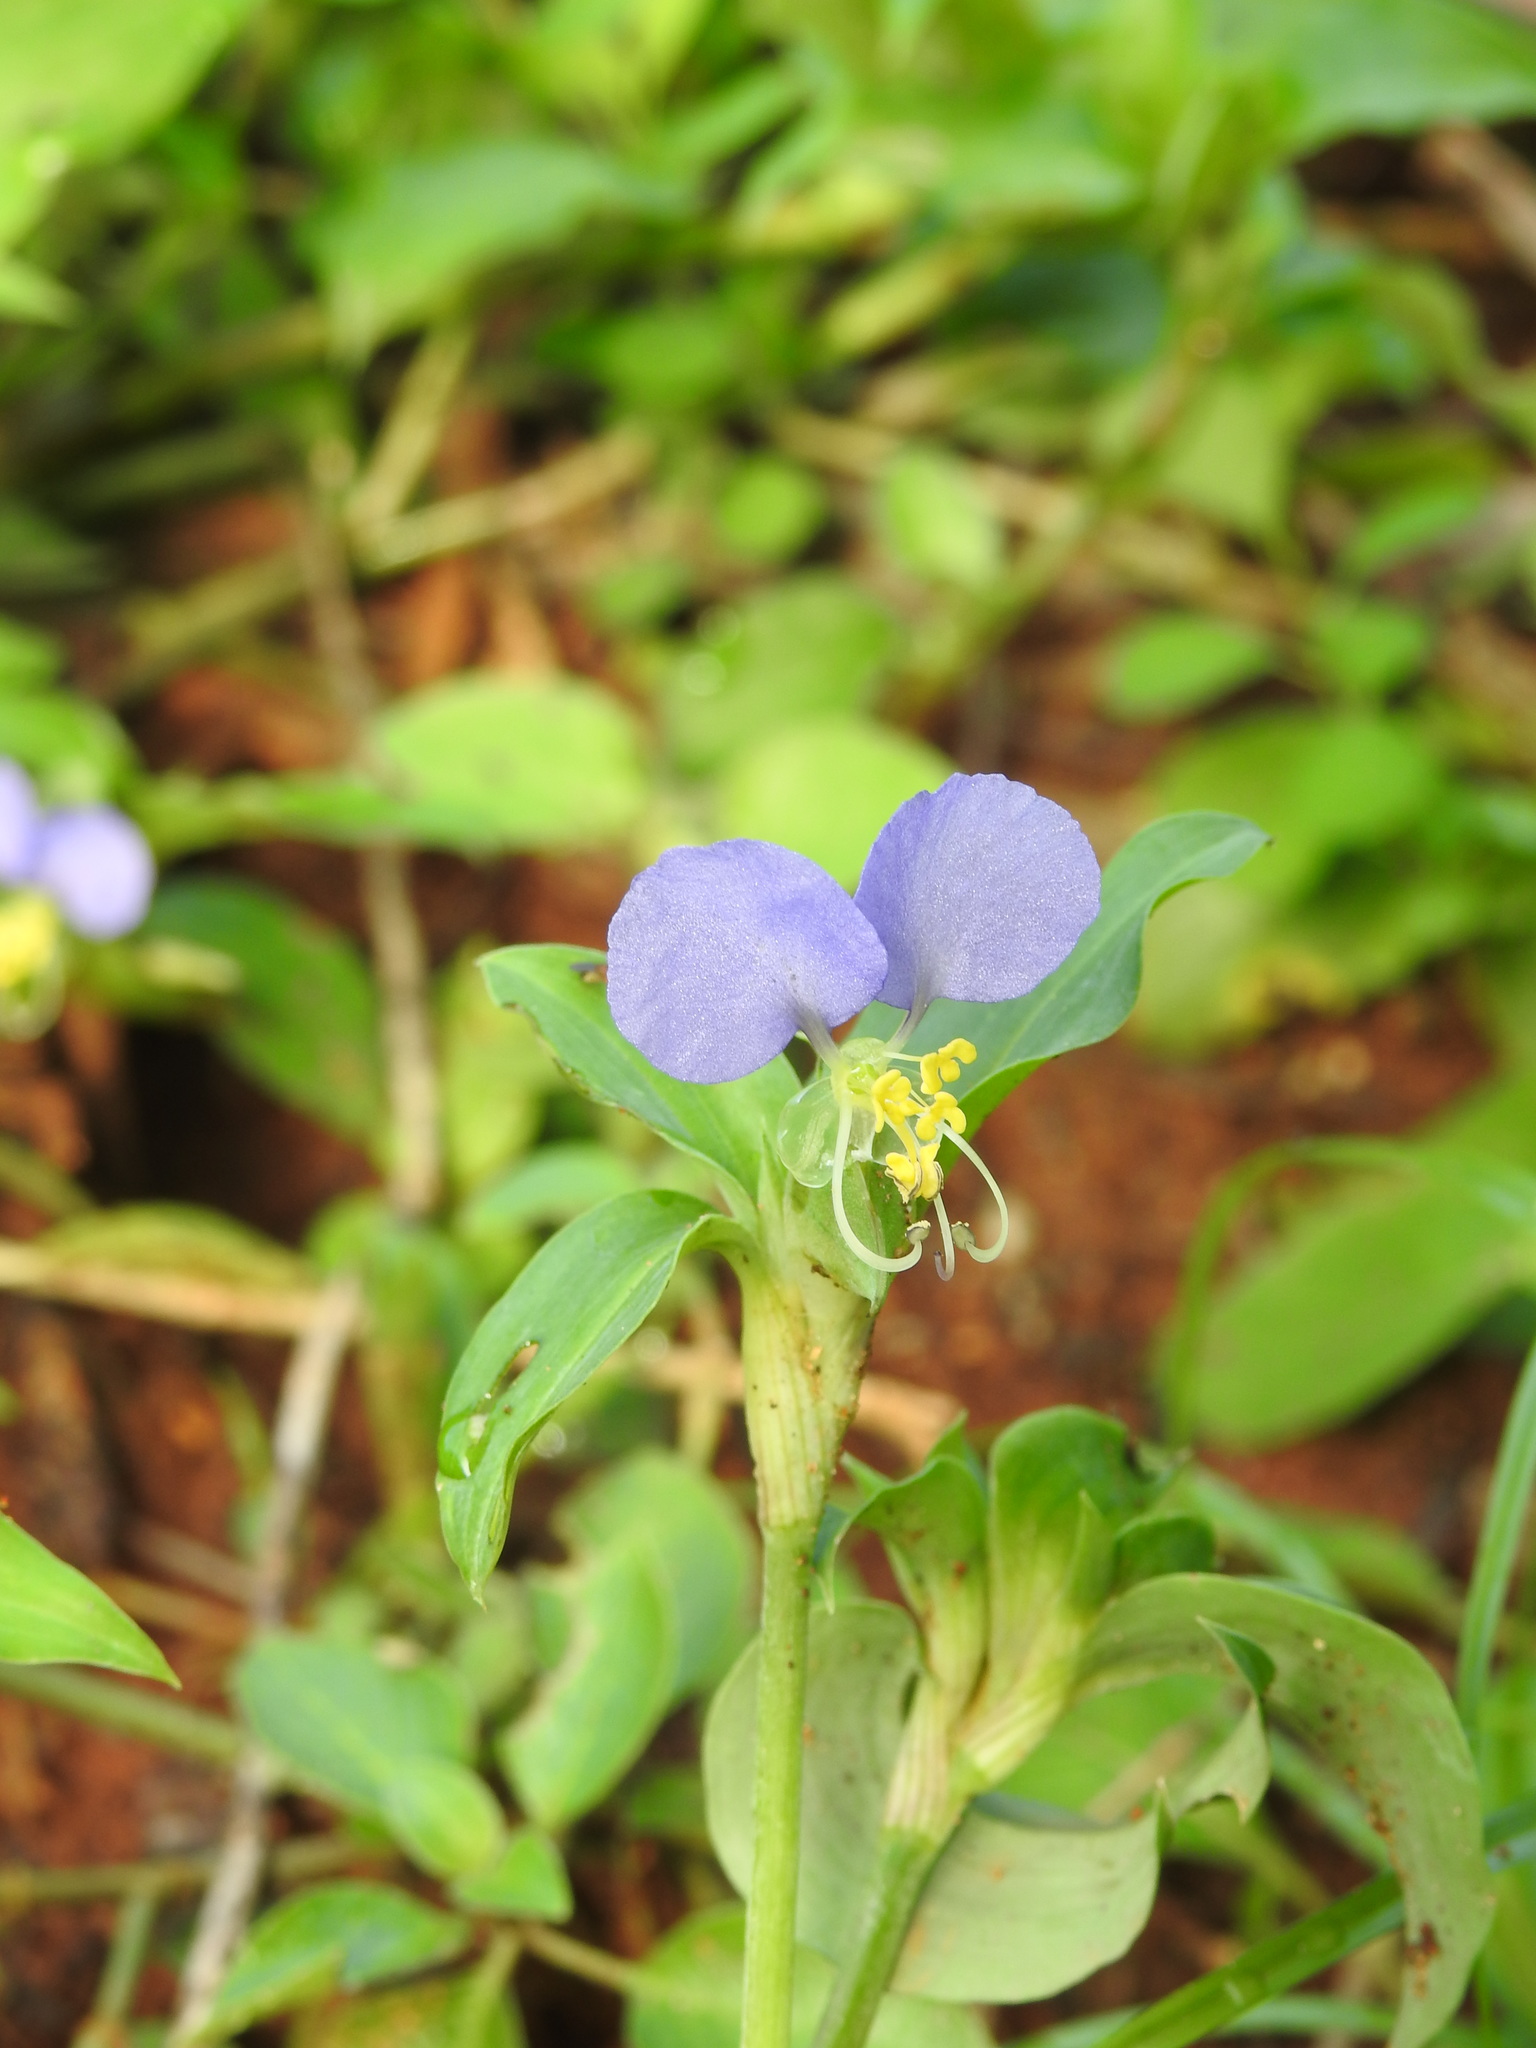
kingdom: Plantae
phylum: Tracheophyta
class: Liliopsida
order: Commelinales
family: Commelinaceae
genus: Commelina
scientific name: Commelina undulata
